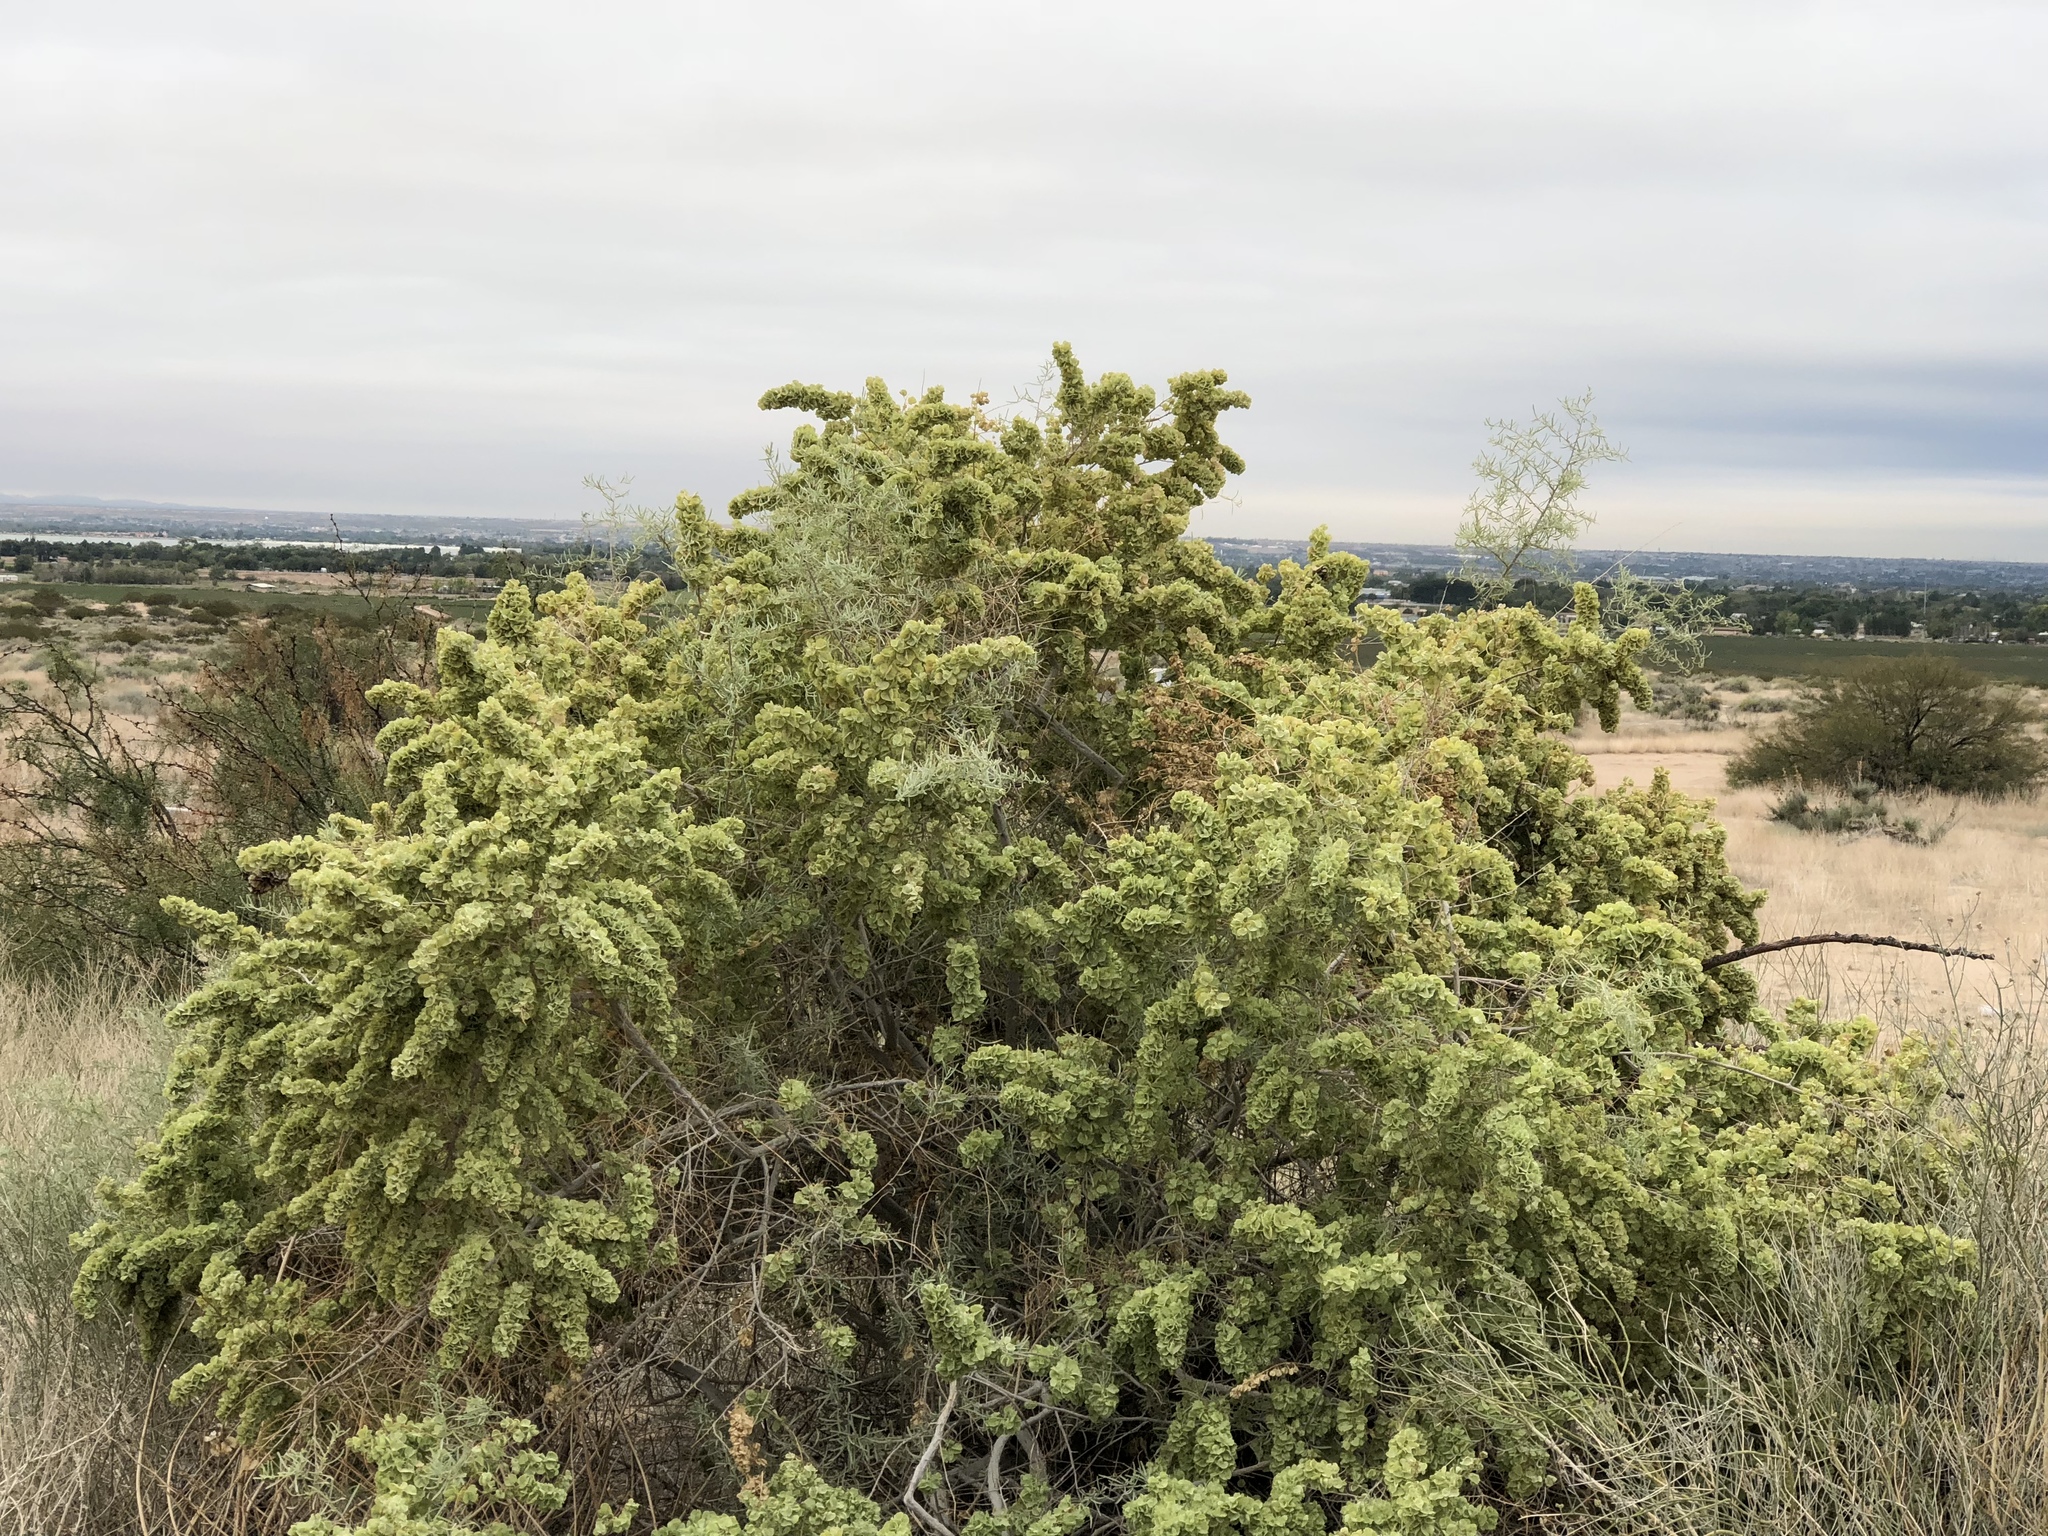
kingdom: Plantae
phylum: Tracheophyta
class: Magnoliopsida
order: Caryophyllales
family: Amaranthaceae
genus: Atriplex
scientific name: Atriplex canescens
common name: Four-wing saltbush
